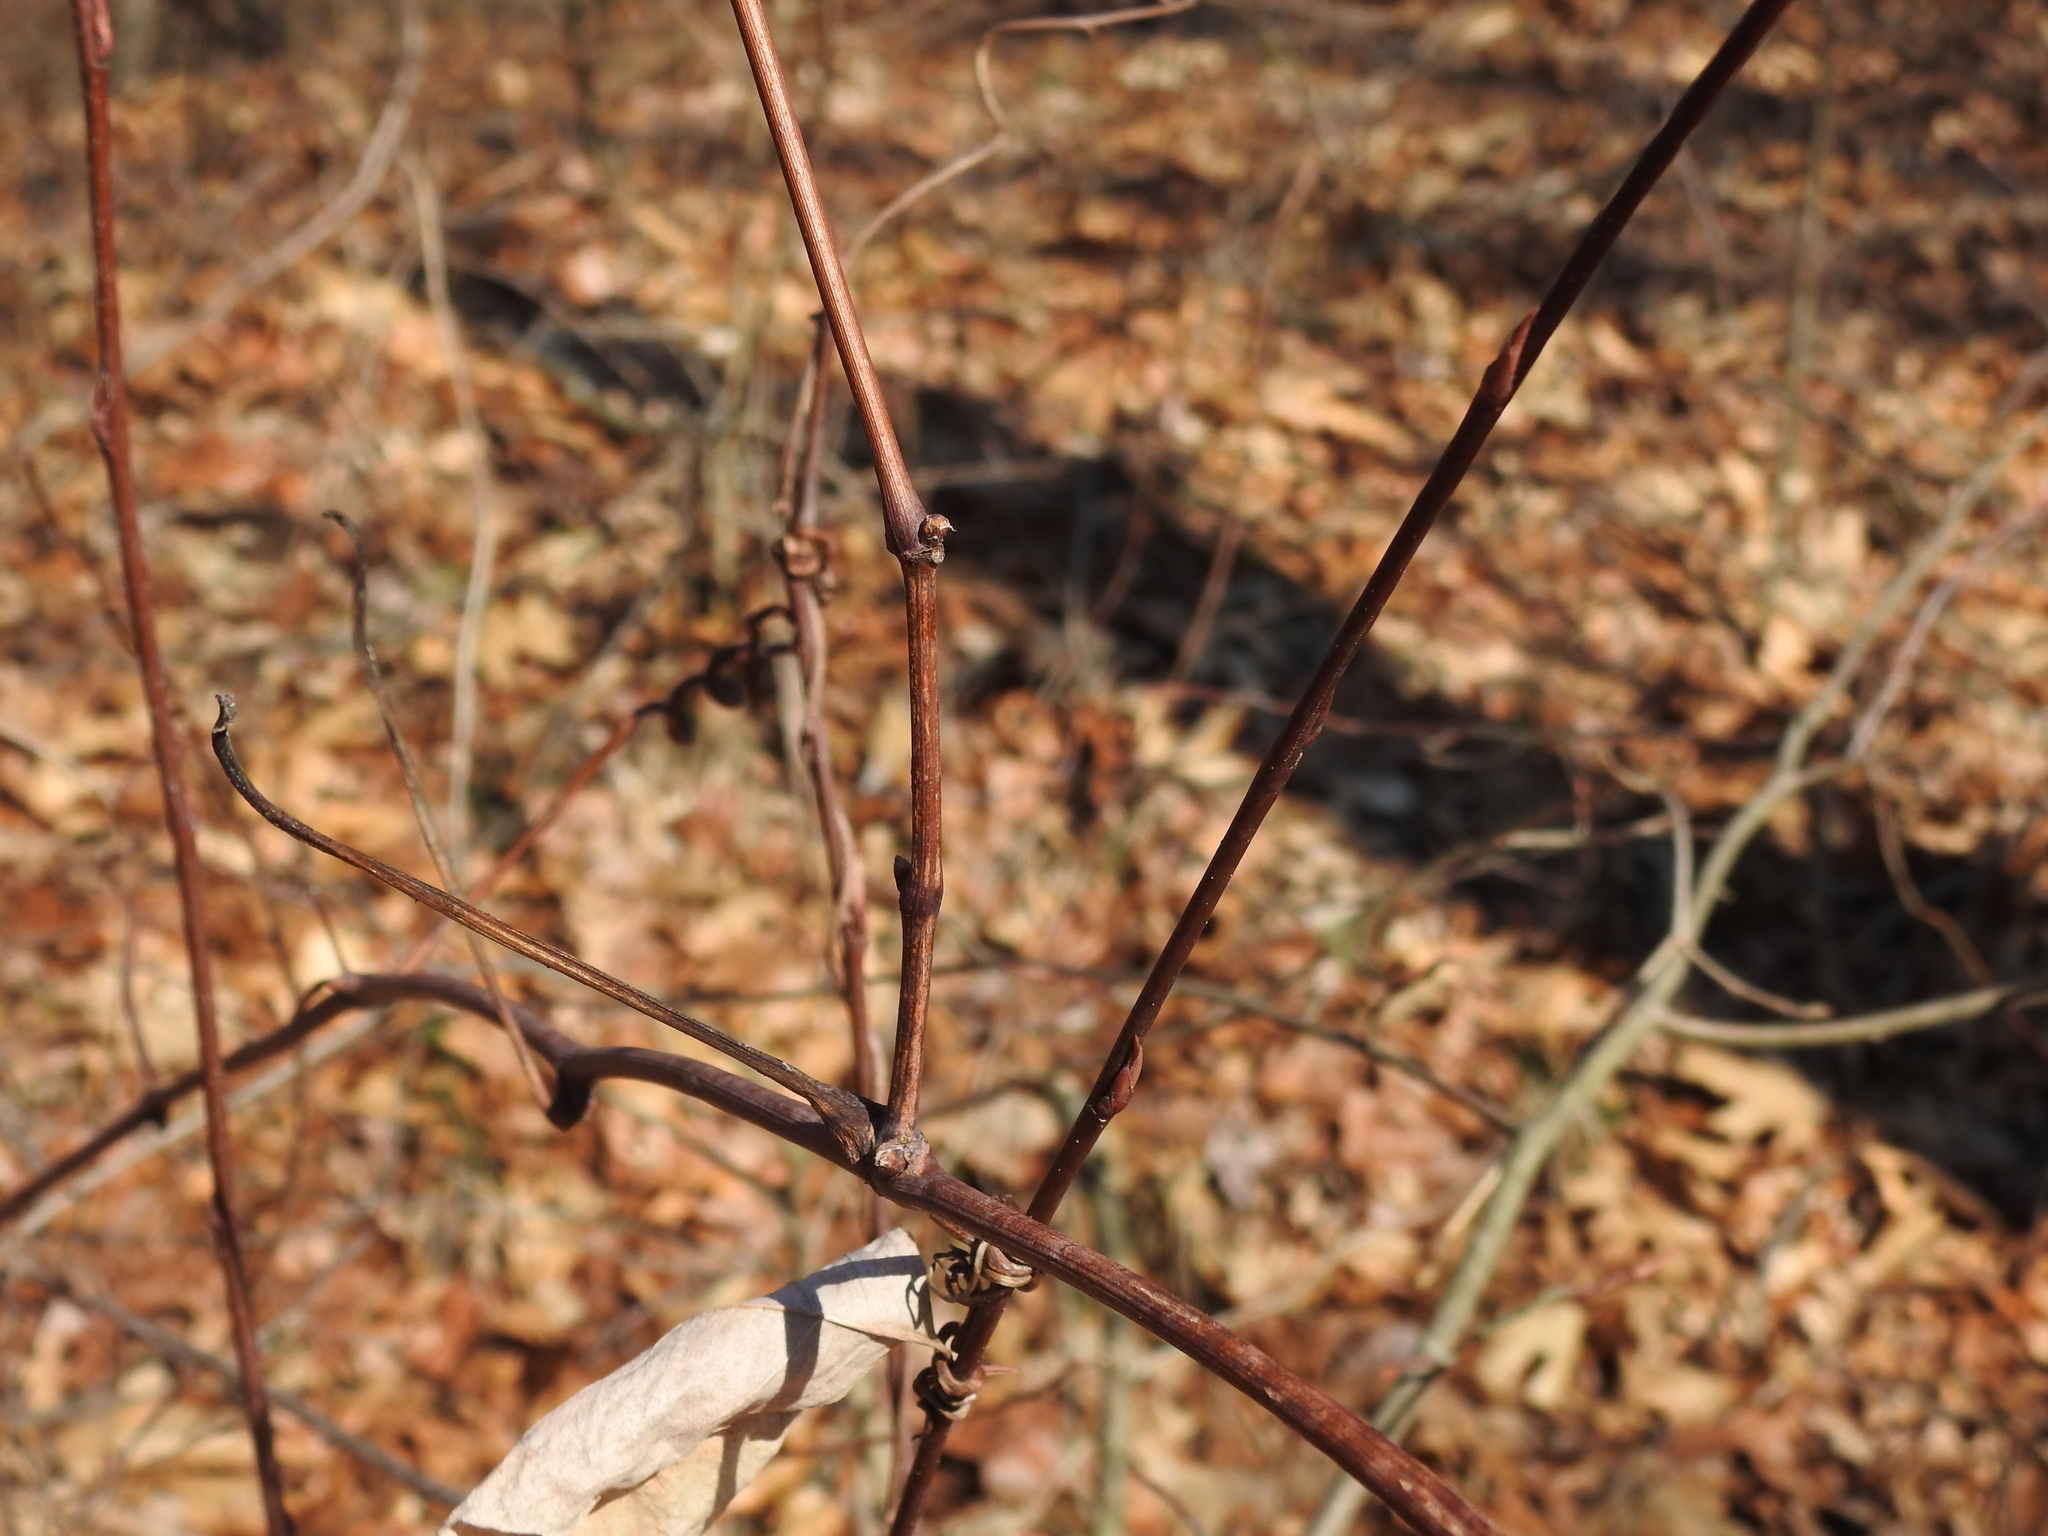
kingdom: Plantae
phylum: Tracheophyta
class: Magnoliopsida
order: Vitales
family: Vitaceae
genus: Vitis
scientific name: Vitis riparia
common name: Frost grape
